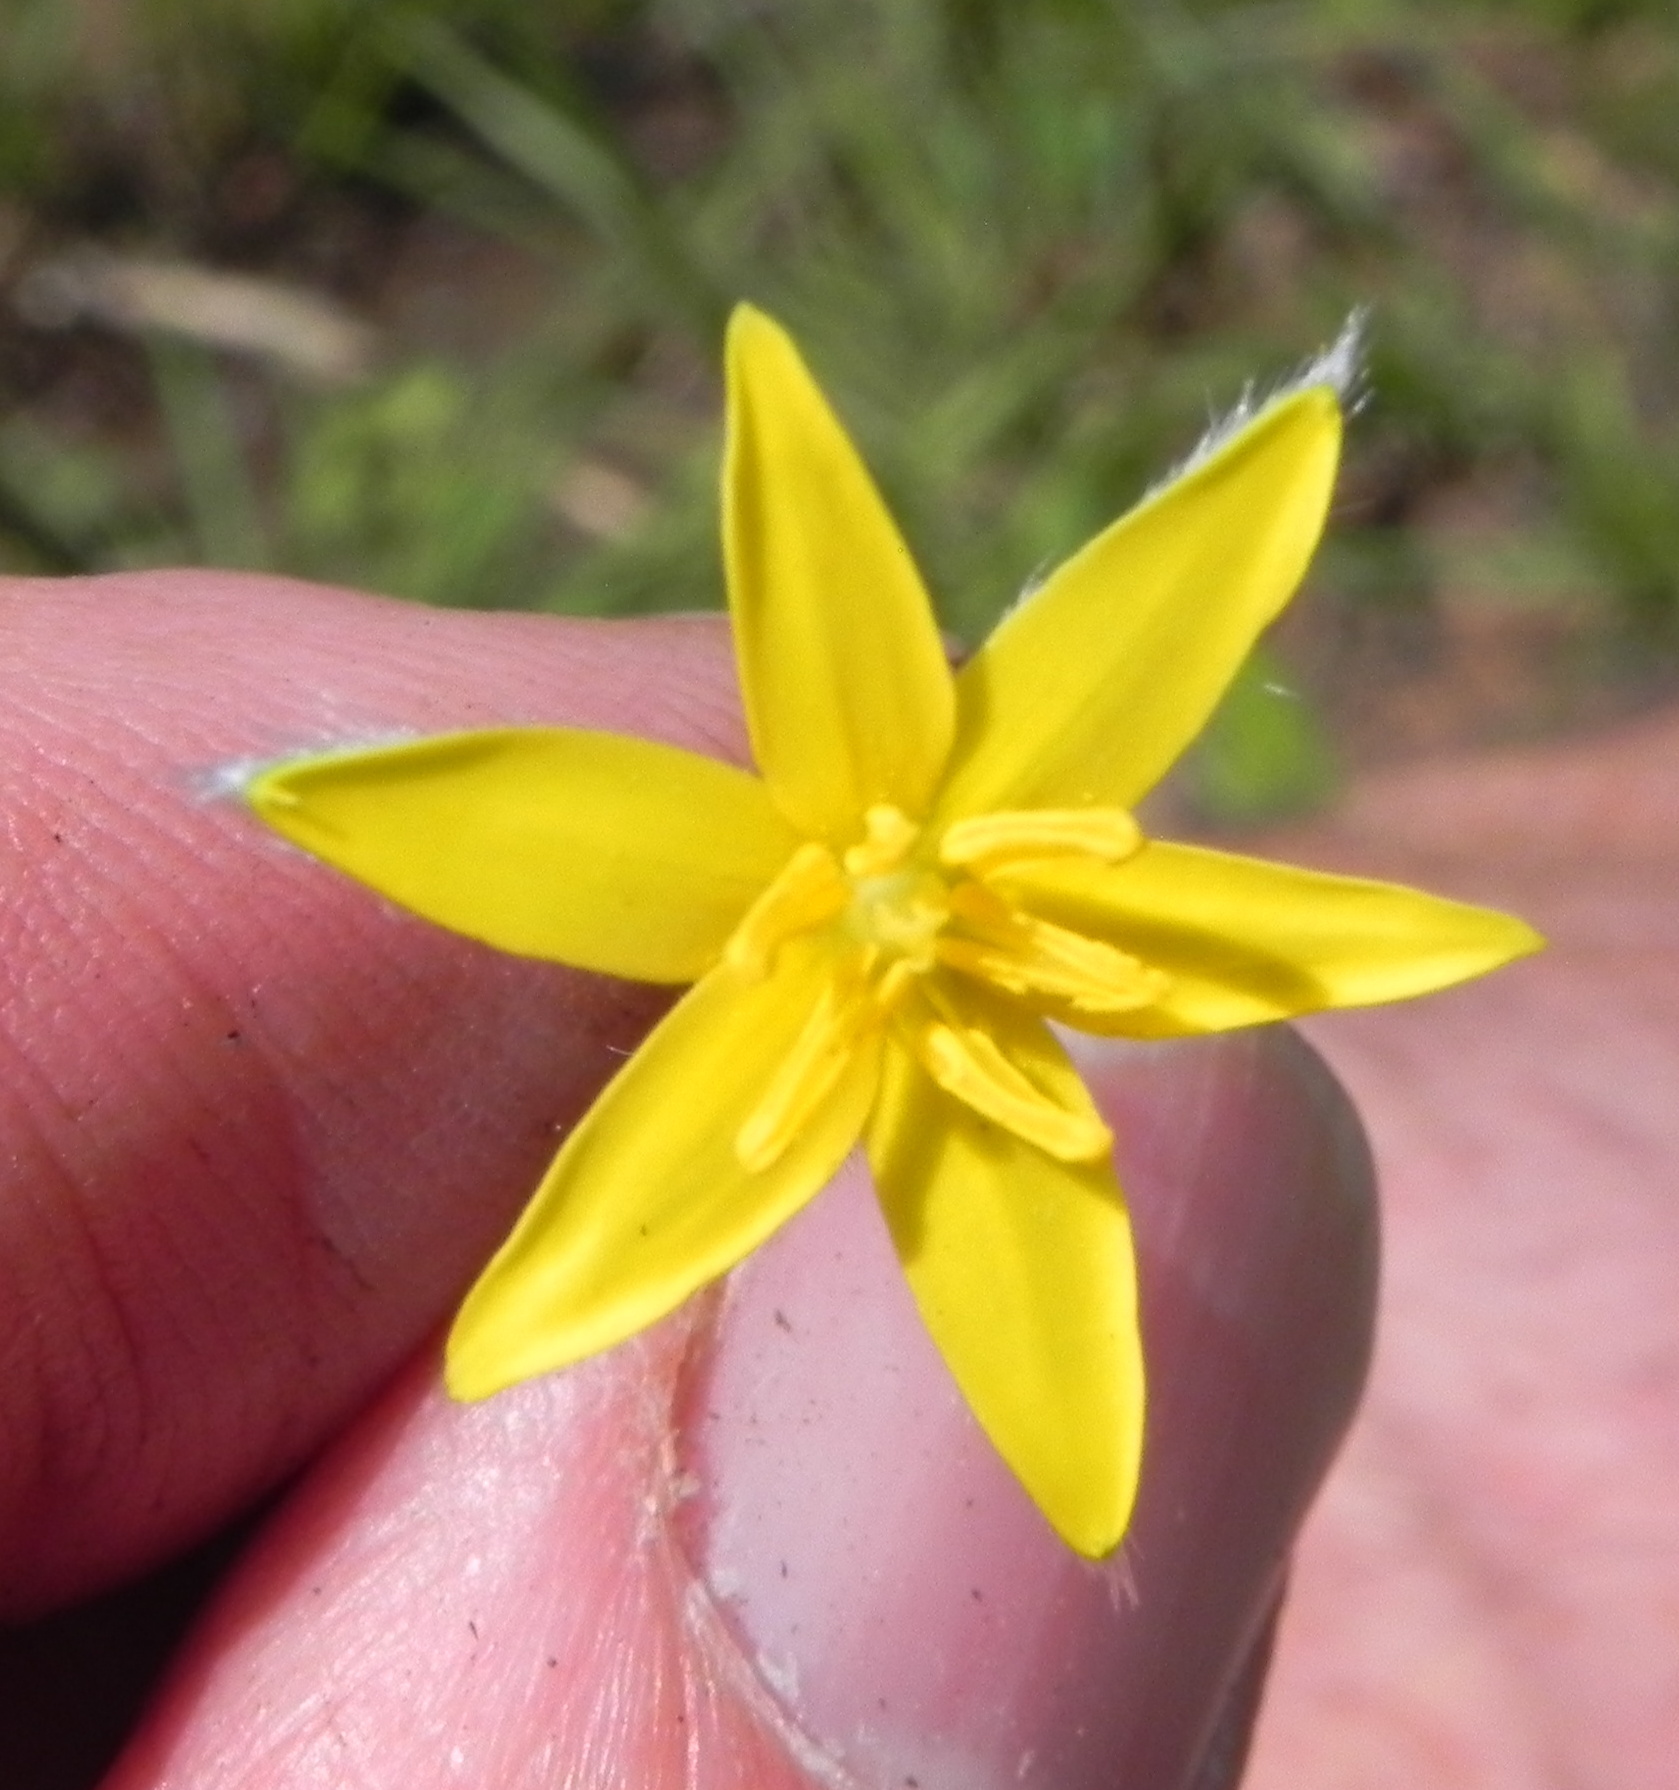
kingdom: Plantae
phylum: Tracheophyta
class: Liliopsida
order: Asparagales
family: Hypoxidaceae
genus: Hypoxis
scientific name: Hypoxis angustifolia
